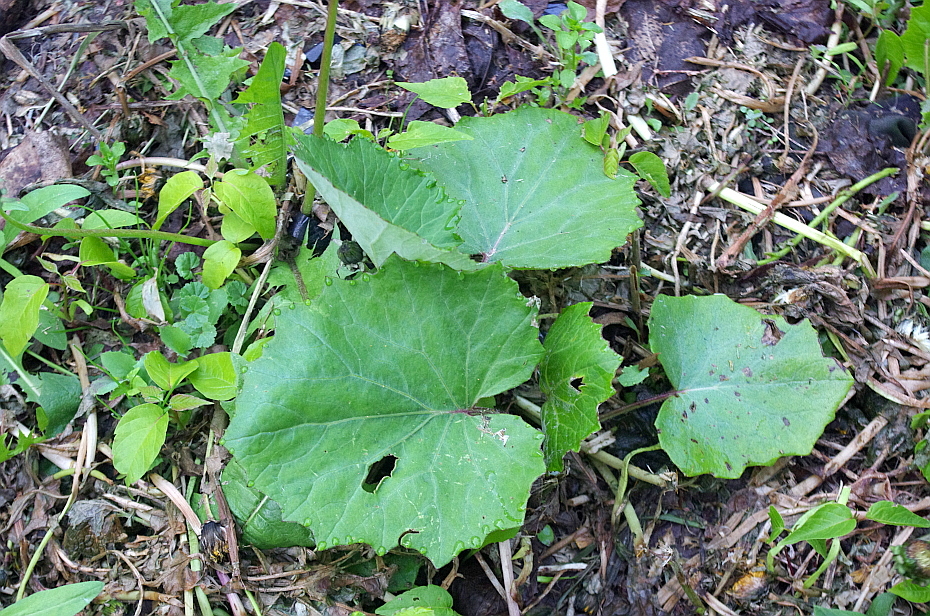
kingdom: Plantae
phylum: Tracheophyta
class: Magnoliopsida
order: Asterales
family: Asteraceae
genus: Tussilago
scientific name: Tussilago farfara
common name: Coltsfoot
